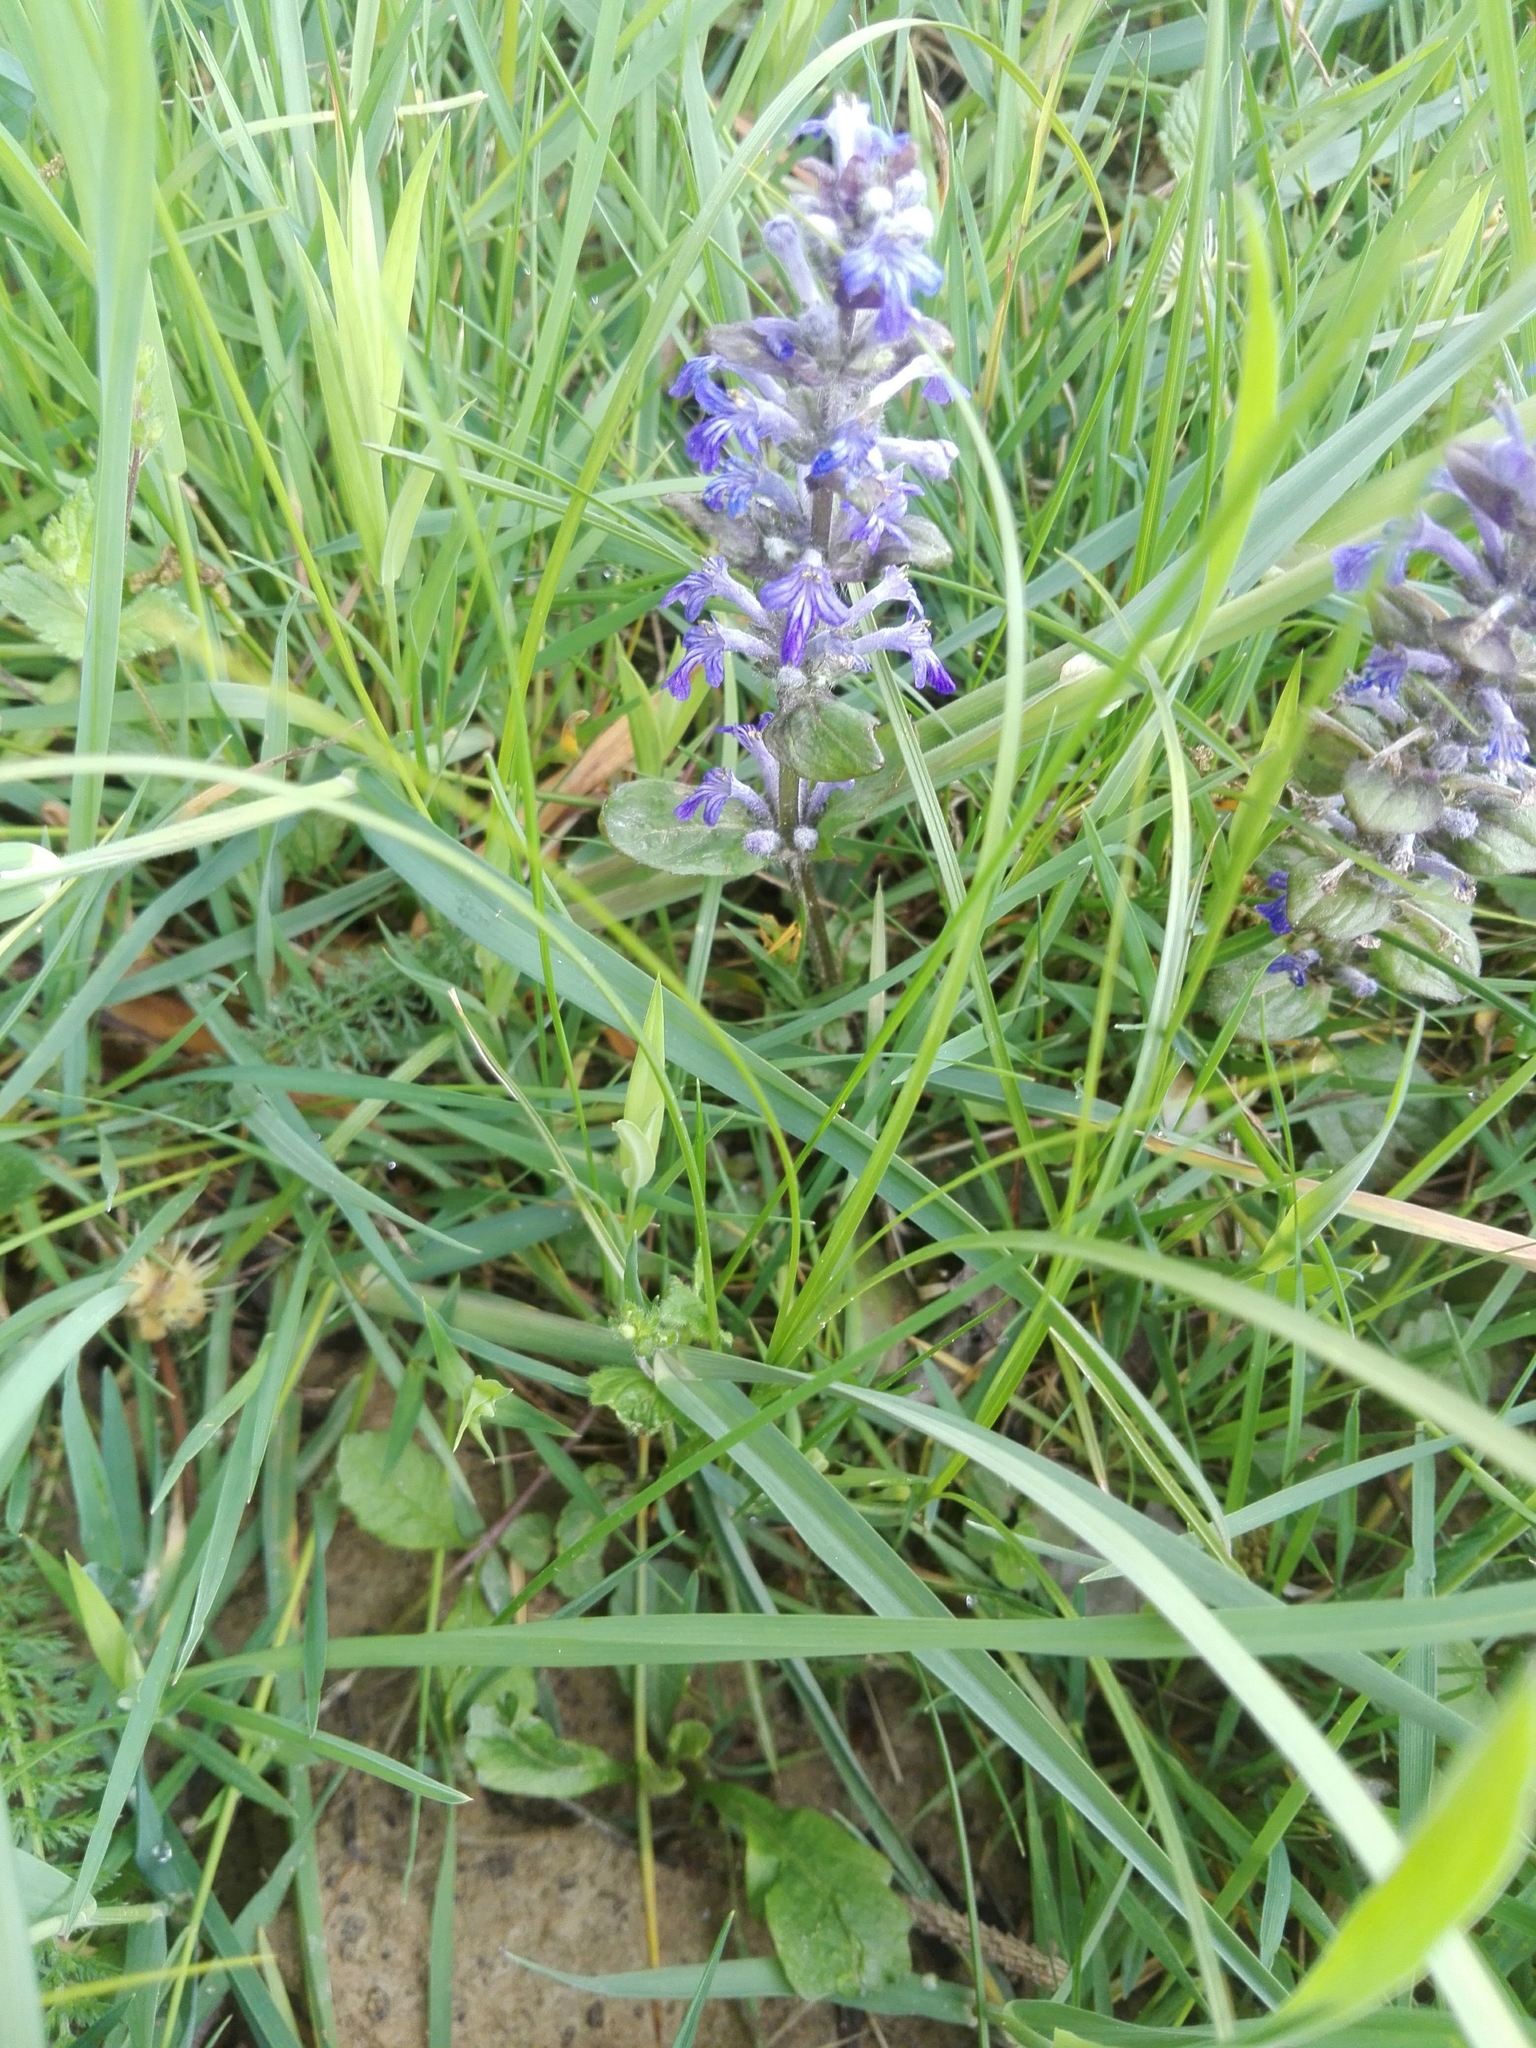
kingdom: Plantae
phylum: Tracheophyta
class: Magnoliopsida
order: Lamiales
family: Lamiaceae
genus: Ajuga
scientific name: Ajuga reptans
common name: Bugle
